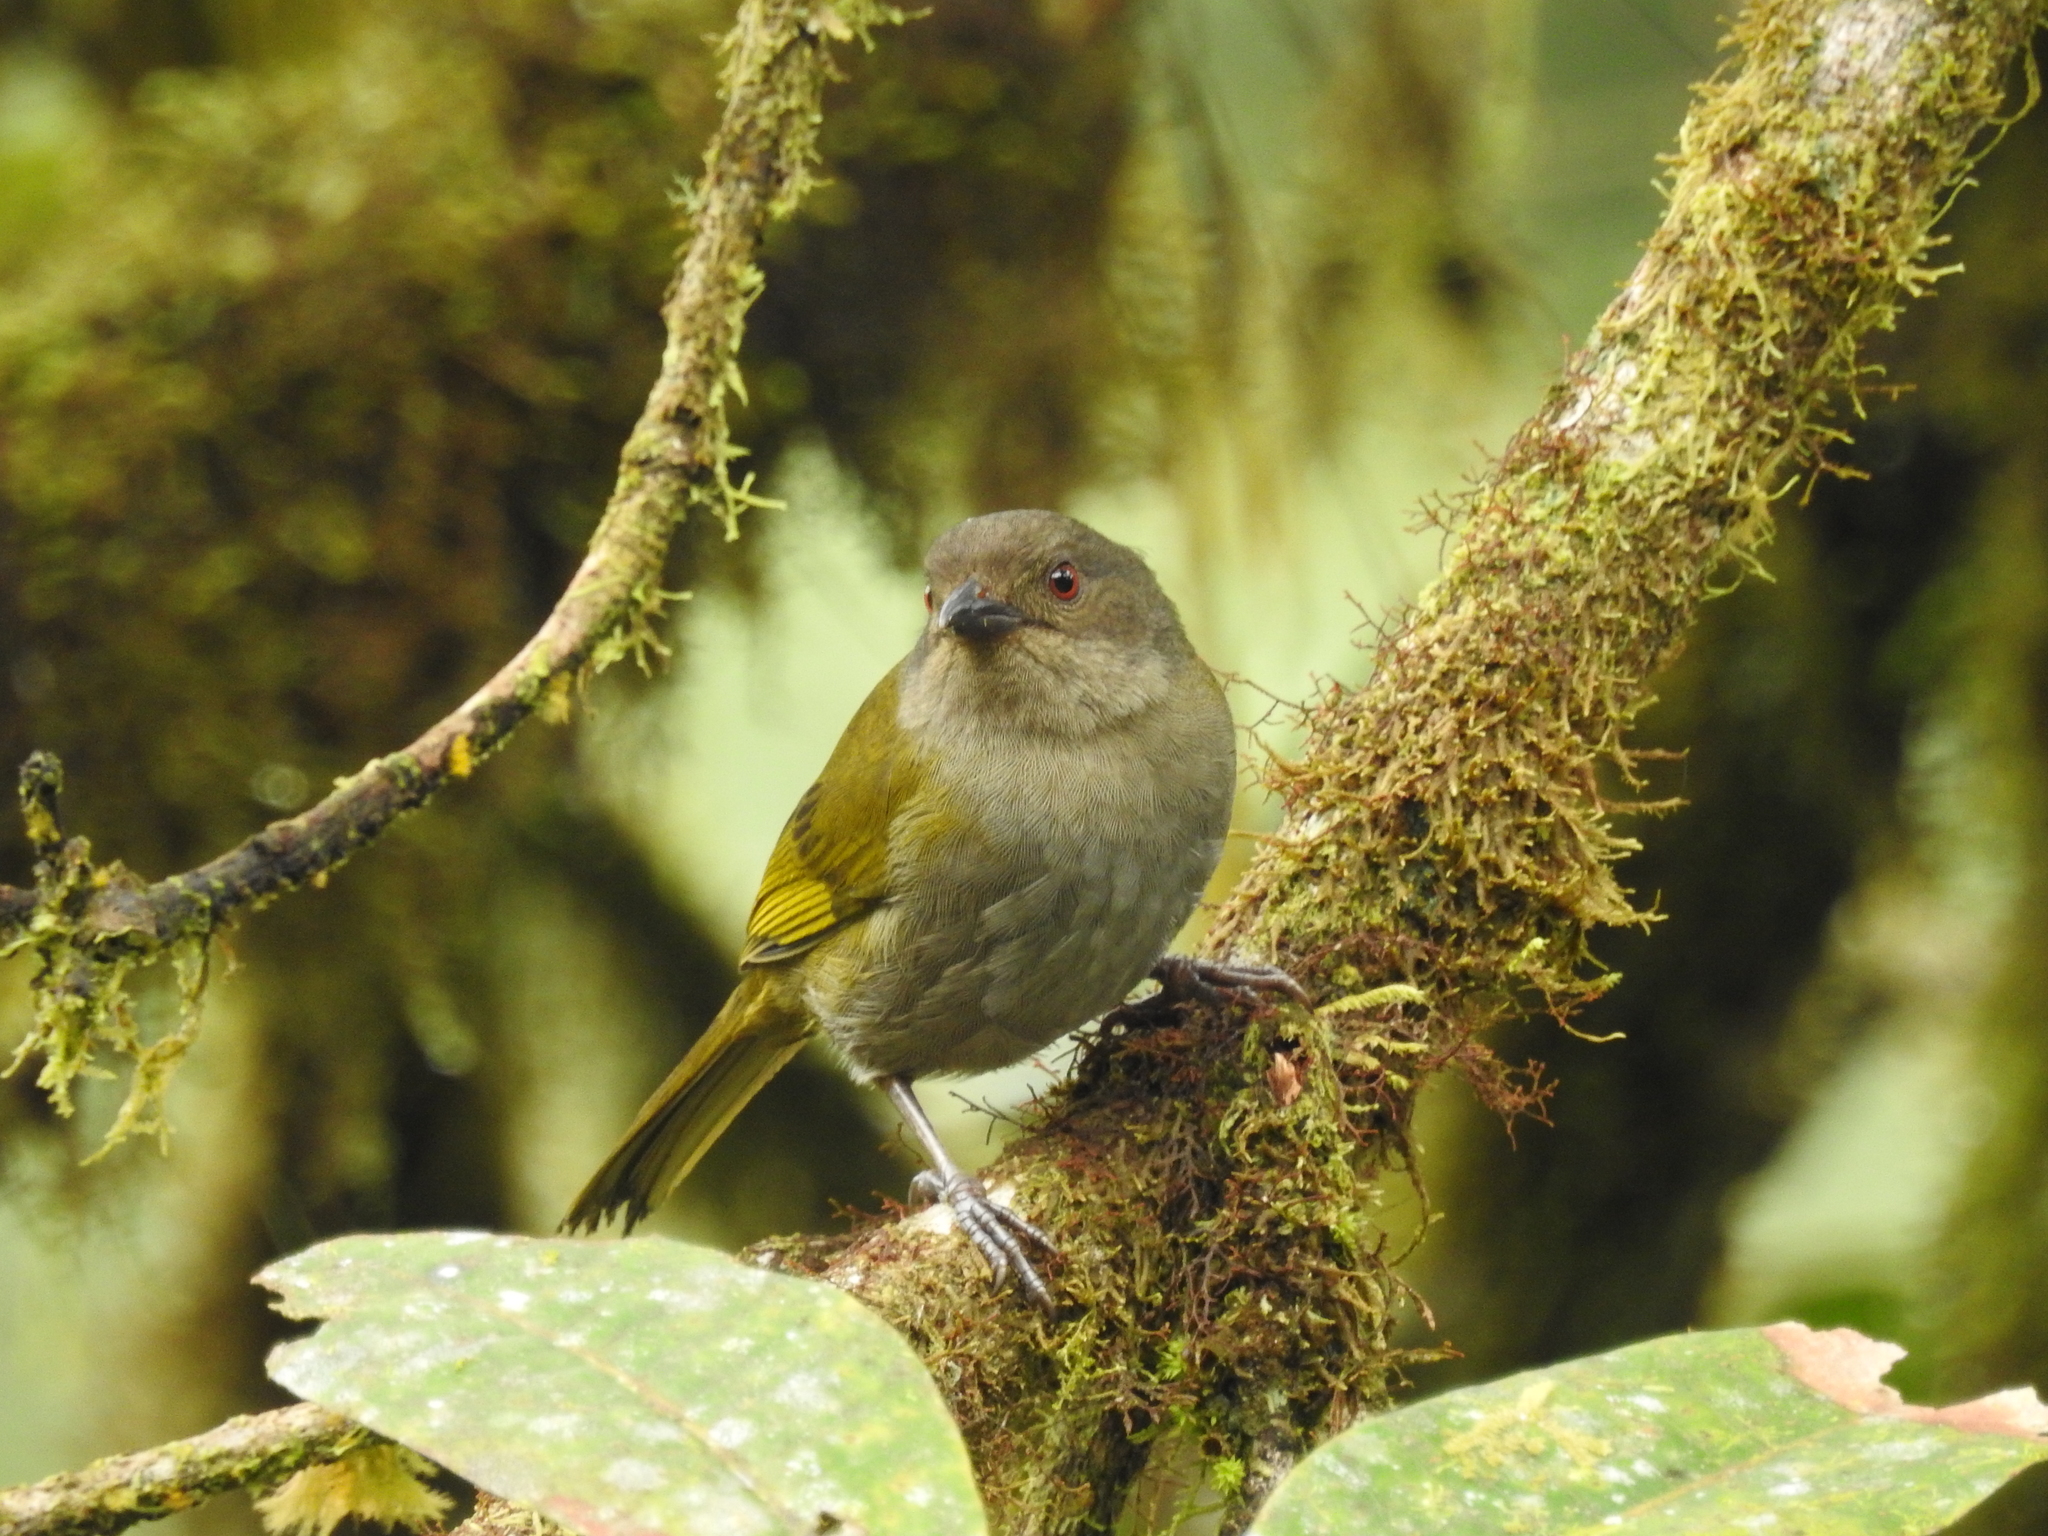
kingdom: Animalia
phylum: Chordata
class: Aves
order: Passeriformes
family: Passerellidae
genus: Chlorospingus
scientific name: Chlorospingus semifuscus
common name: Dusky bush-tanager
